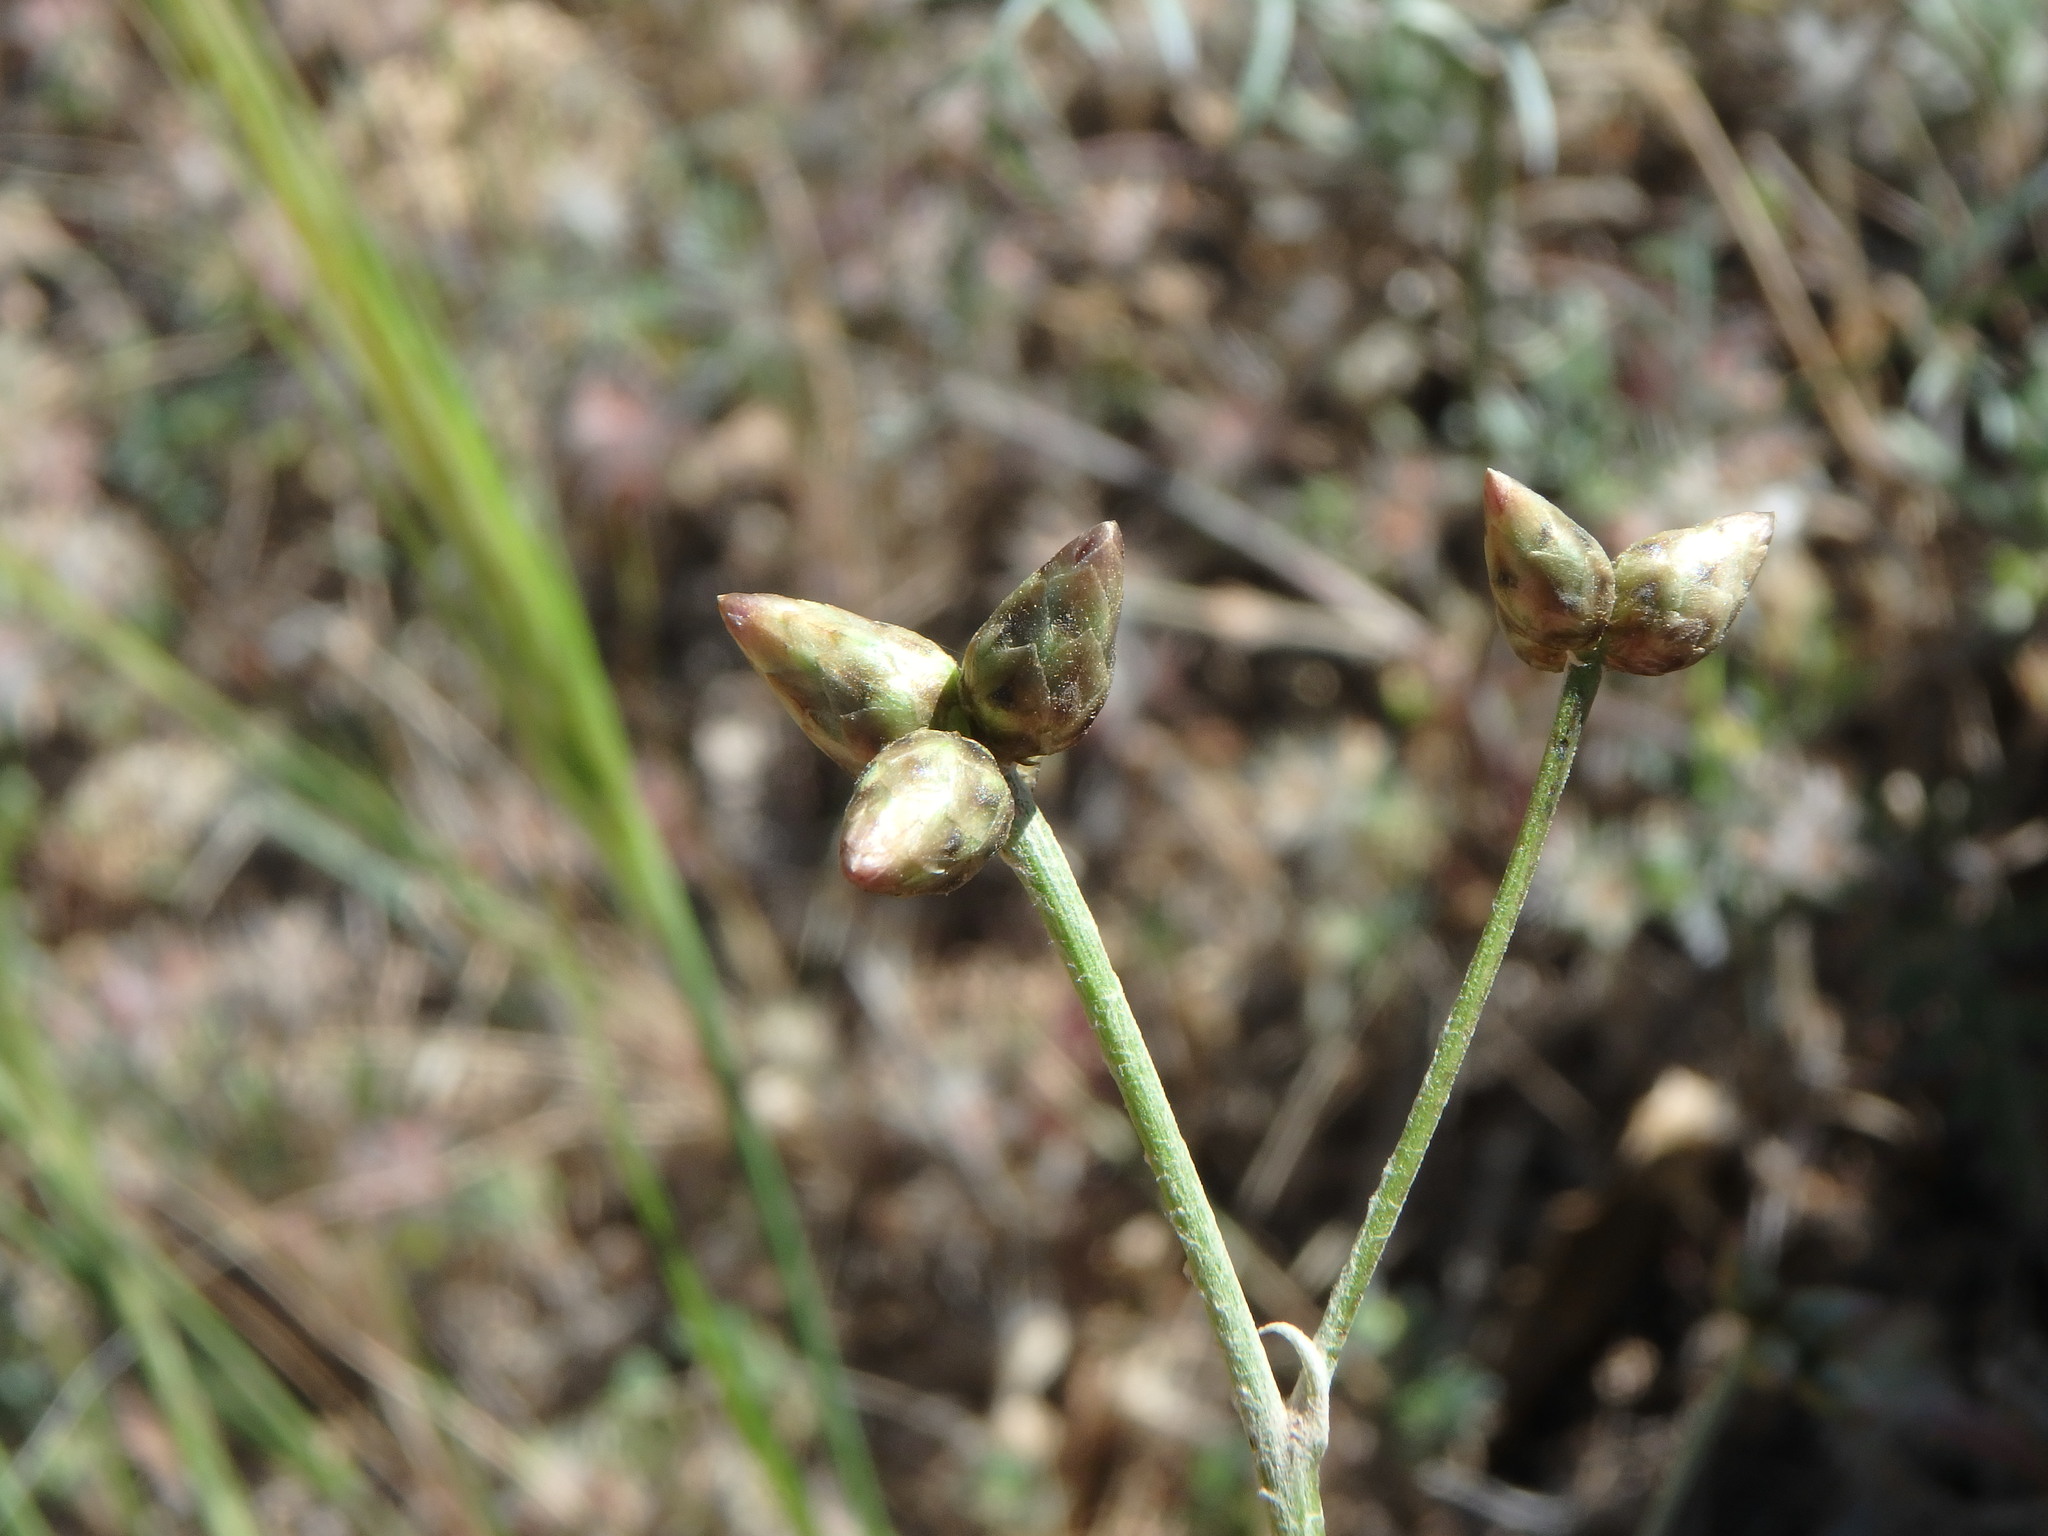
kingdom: Plantae
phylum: Tracheophyta
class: Magnoliopsida
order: Asterales
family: Asteraceae
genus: Phagnalon
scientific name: Phagnalon sordidum
